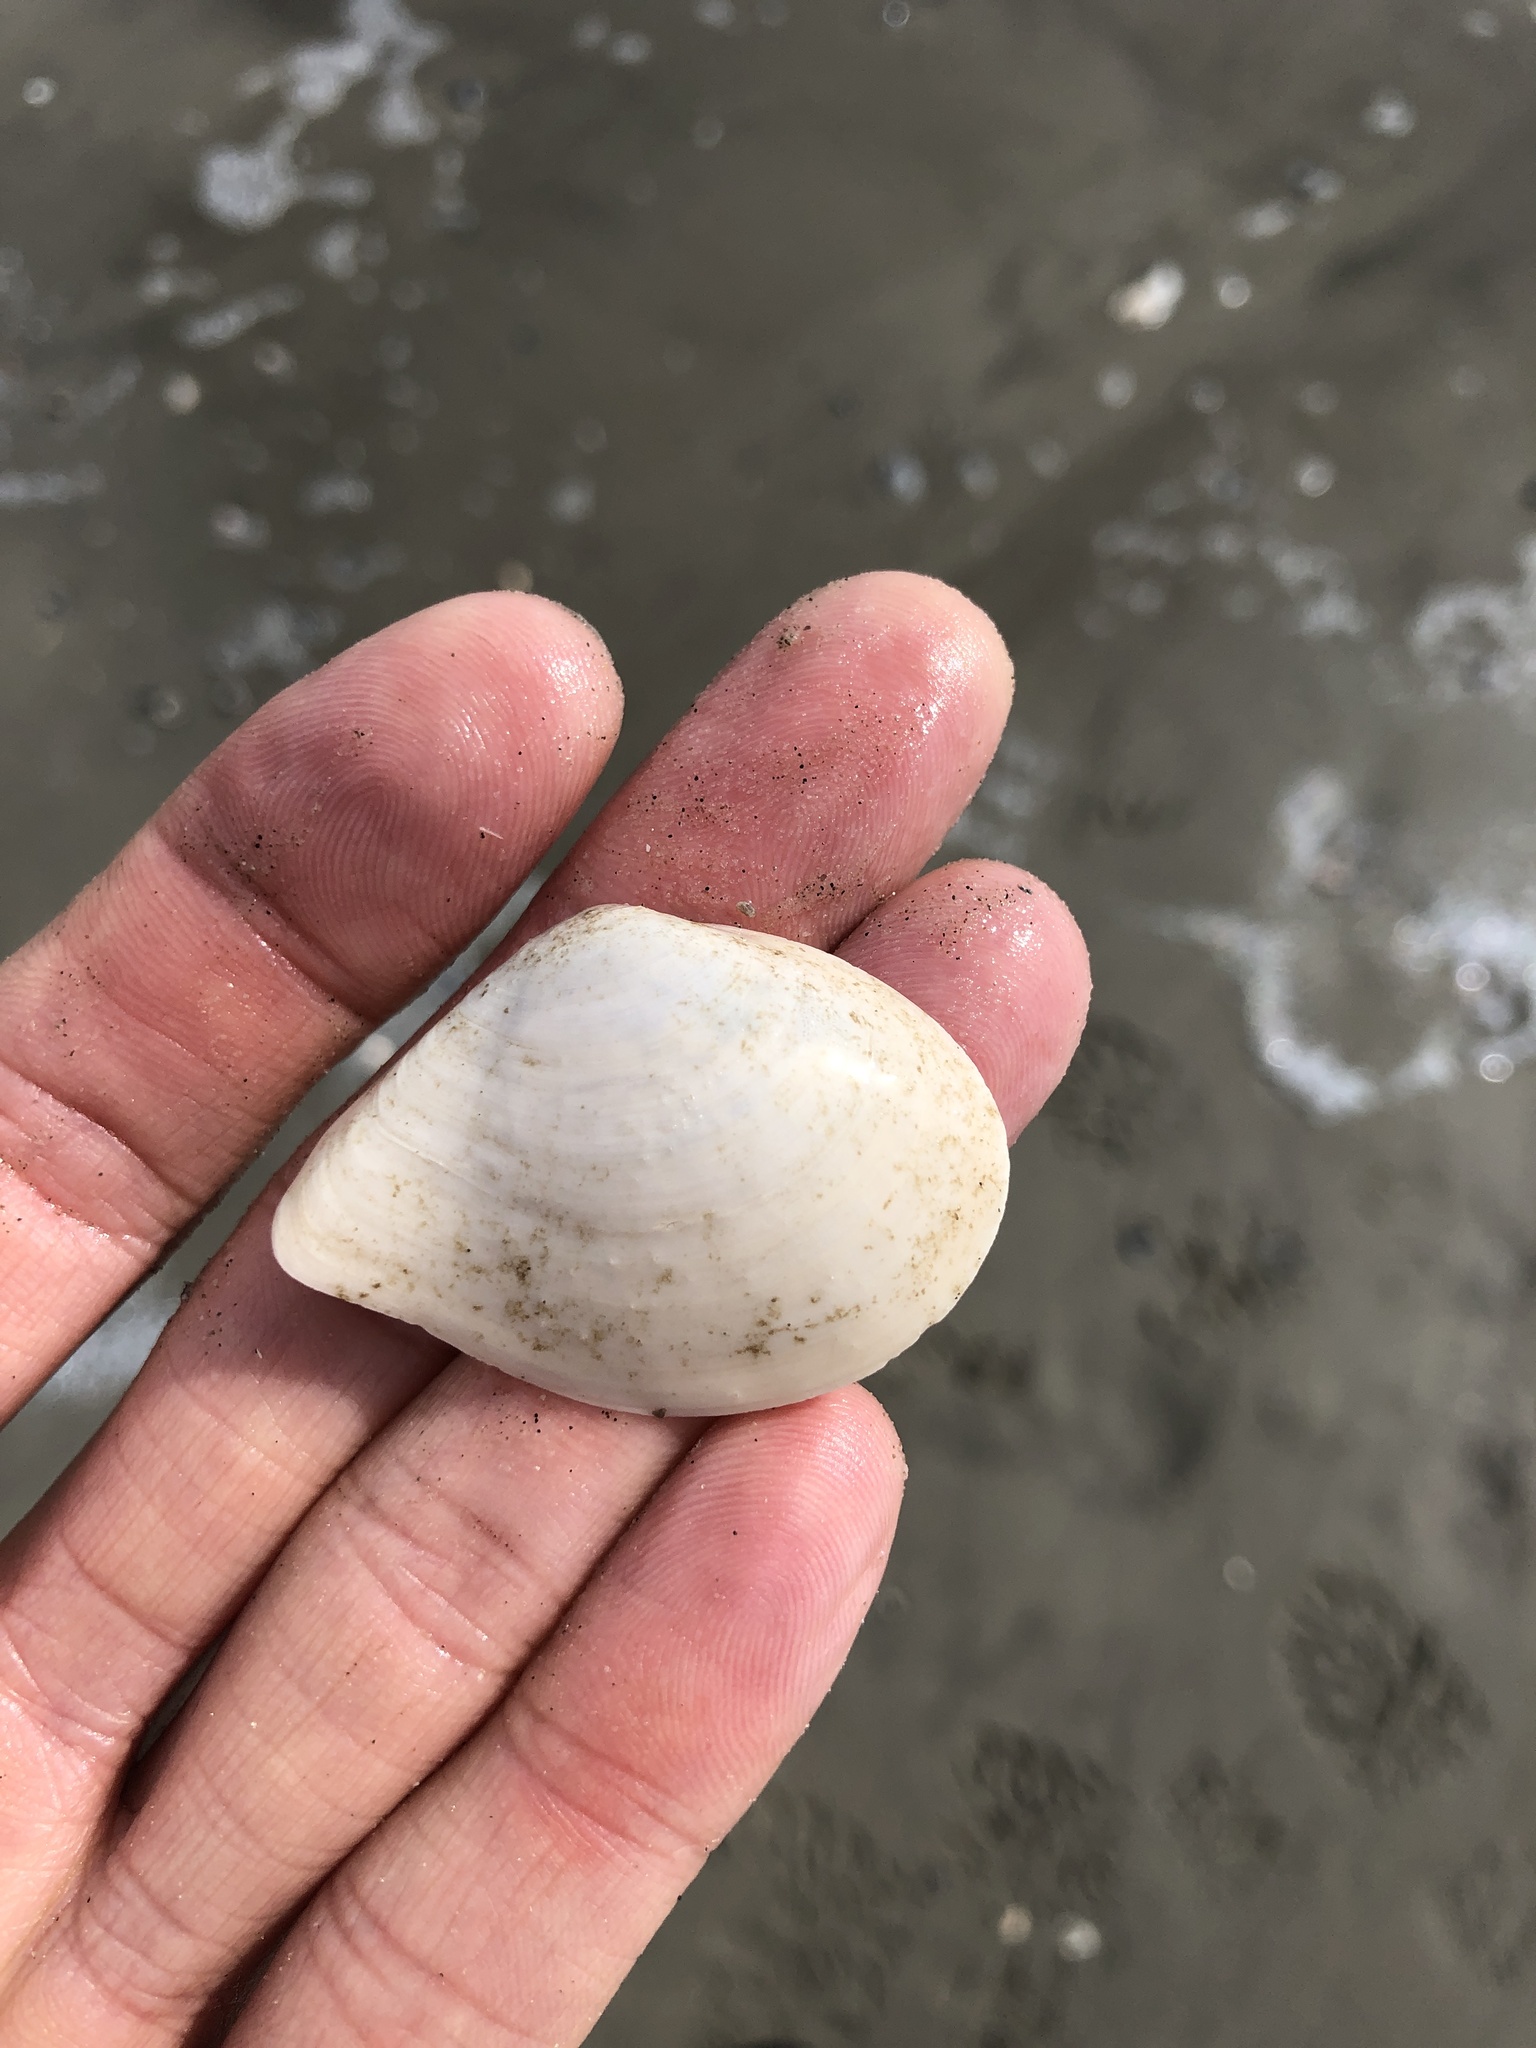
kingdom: Animalia
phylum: Mollusca
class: Bivalvia
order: Cardiida
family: Tellinidae
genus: Austromacoma
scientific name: Austromacoma constricta
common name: Constricted macoma
